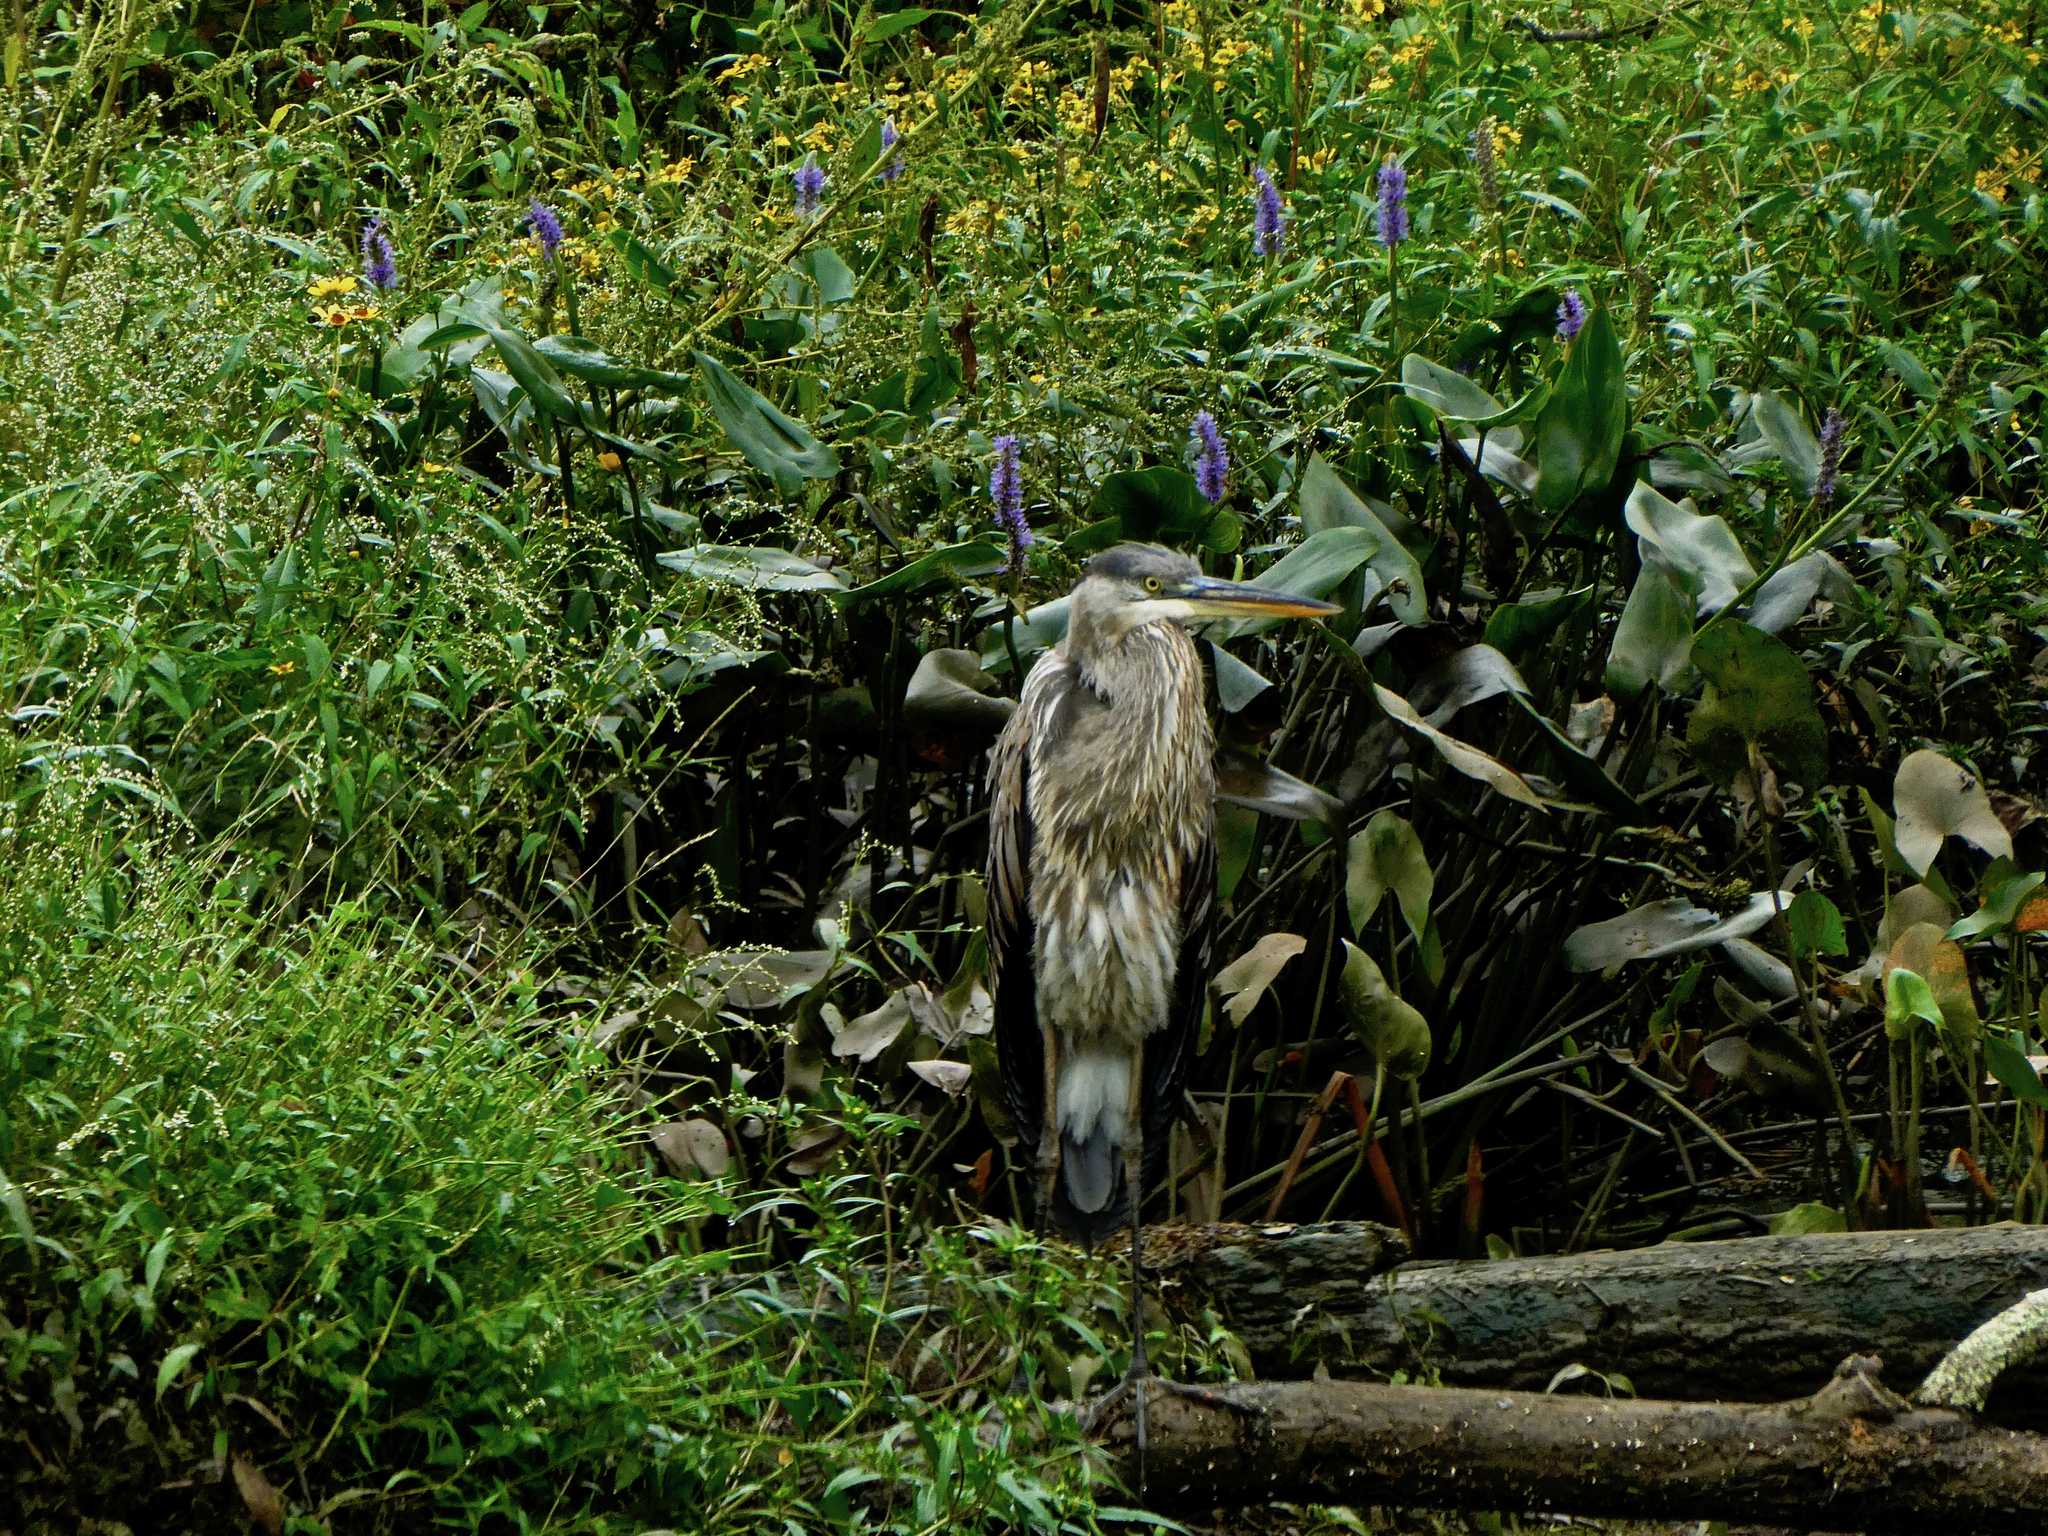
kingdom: Animalia
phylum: Chordata
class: Aves
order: Pelecaniformes
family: Ardeidae
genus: Ardea
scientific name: Ardea herodias
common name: Great blue heron
